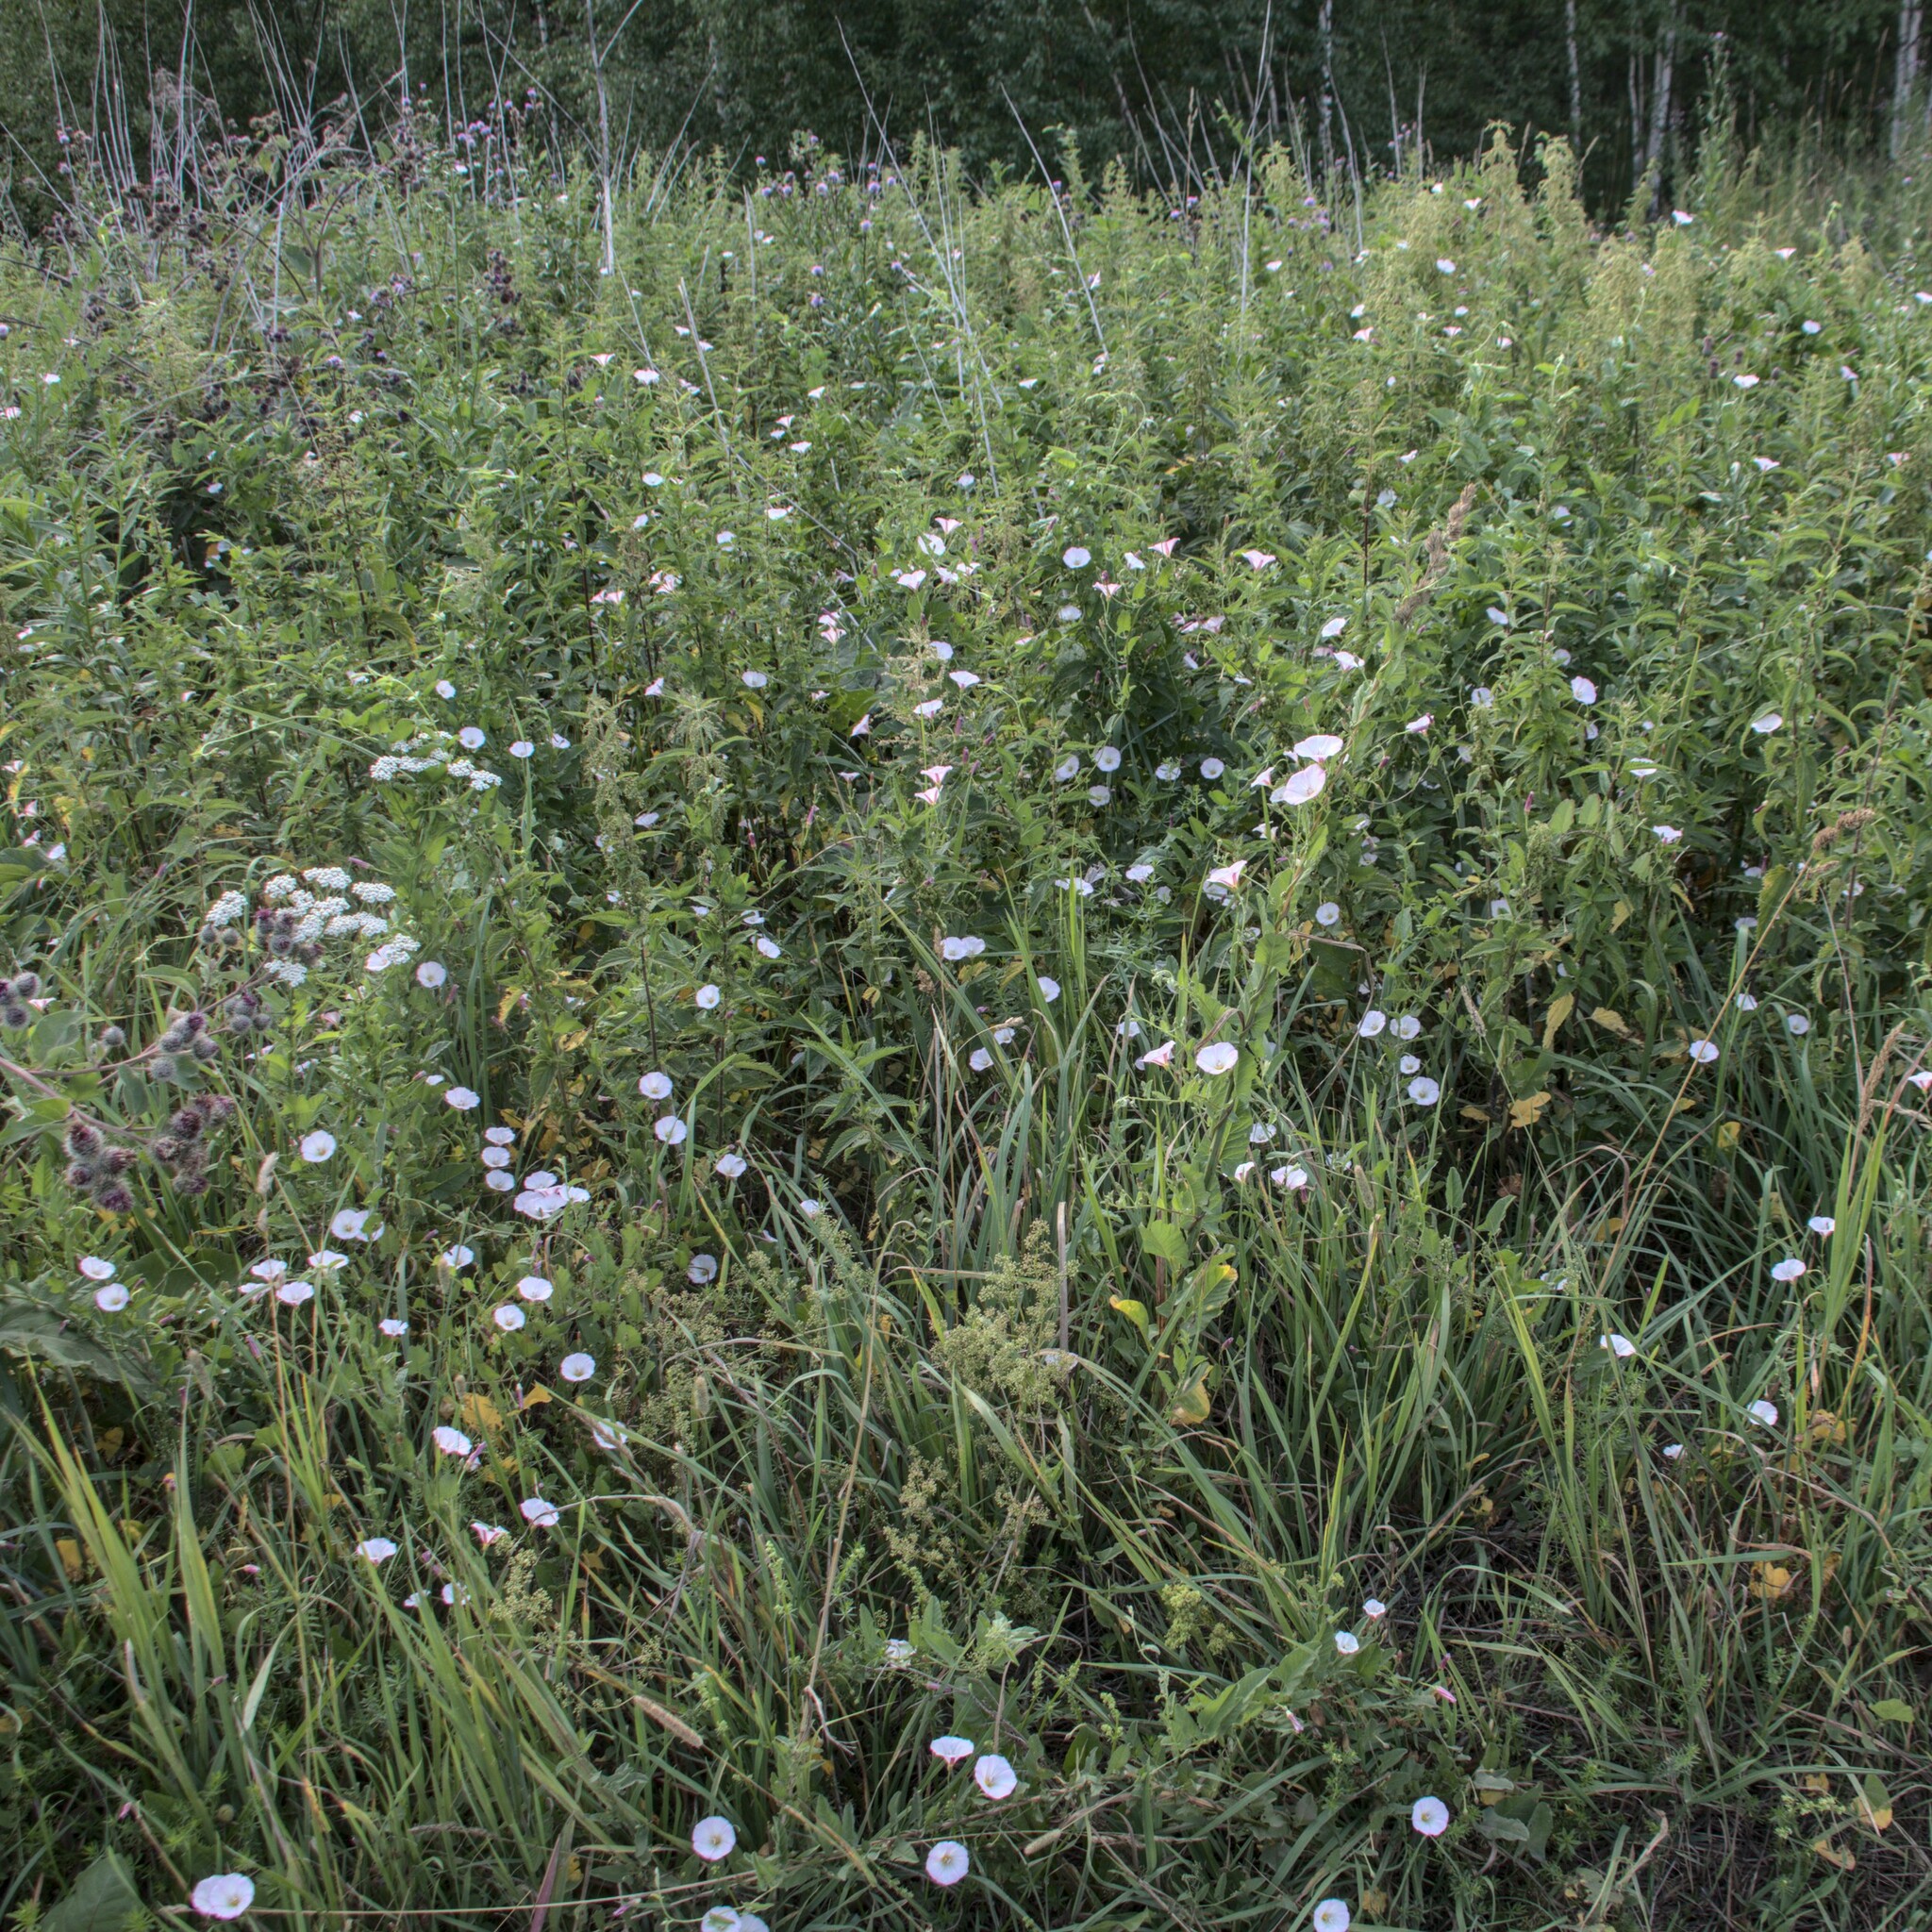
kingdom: Plantae
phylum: Tracheophyta
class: Magnoliopsida
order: Solanales
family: Convolvulaceae
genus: Convolvulus
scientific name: Convolvulus arvensis
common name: Field bindweed
